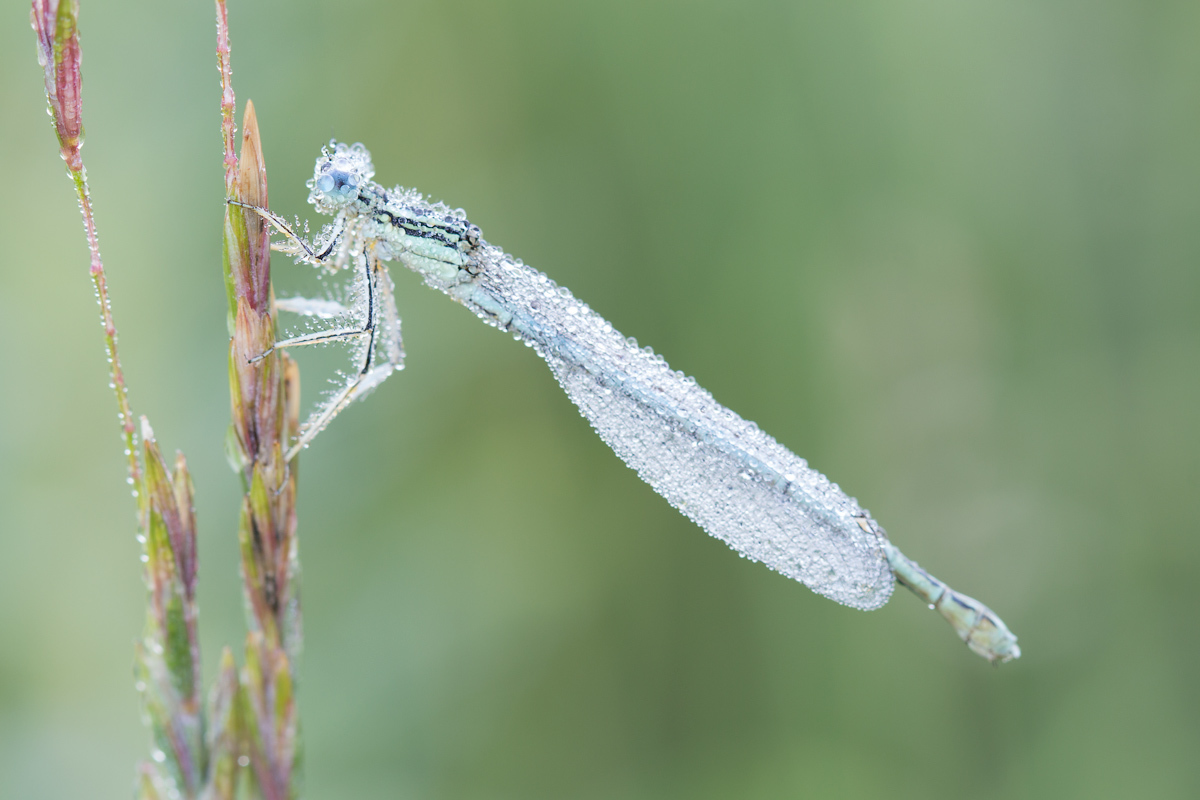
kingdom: Animalia
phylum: Arthropoda
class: Insecta
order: Odonata
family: Platycnemididae
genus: Platycnemis
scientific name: Platycnemis pennipes
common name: White-legged damselfly
